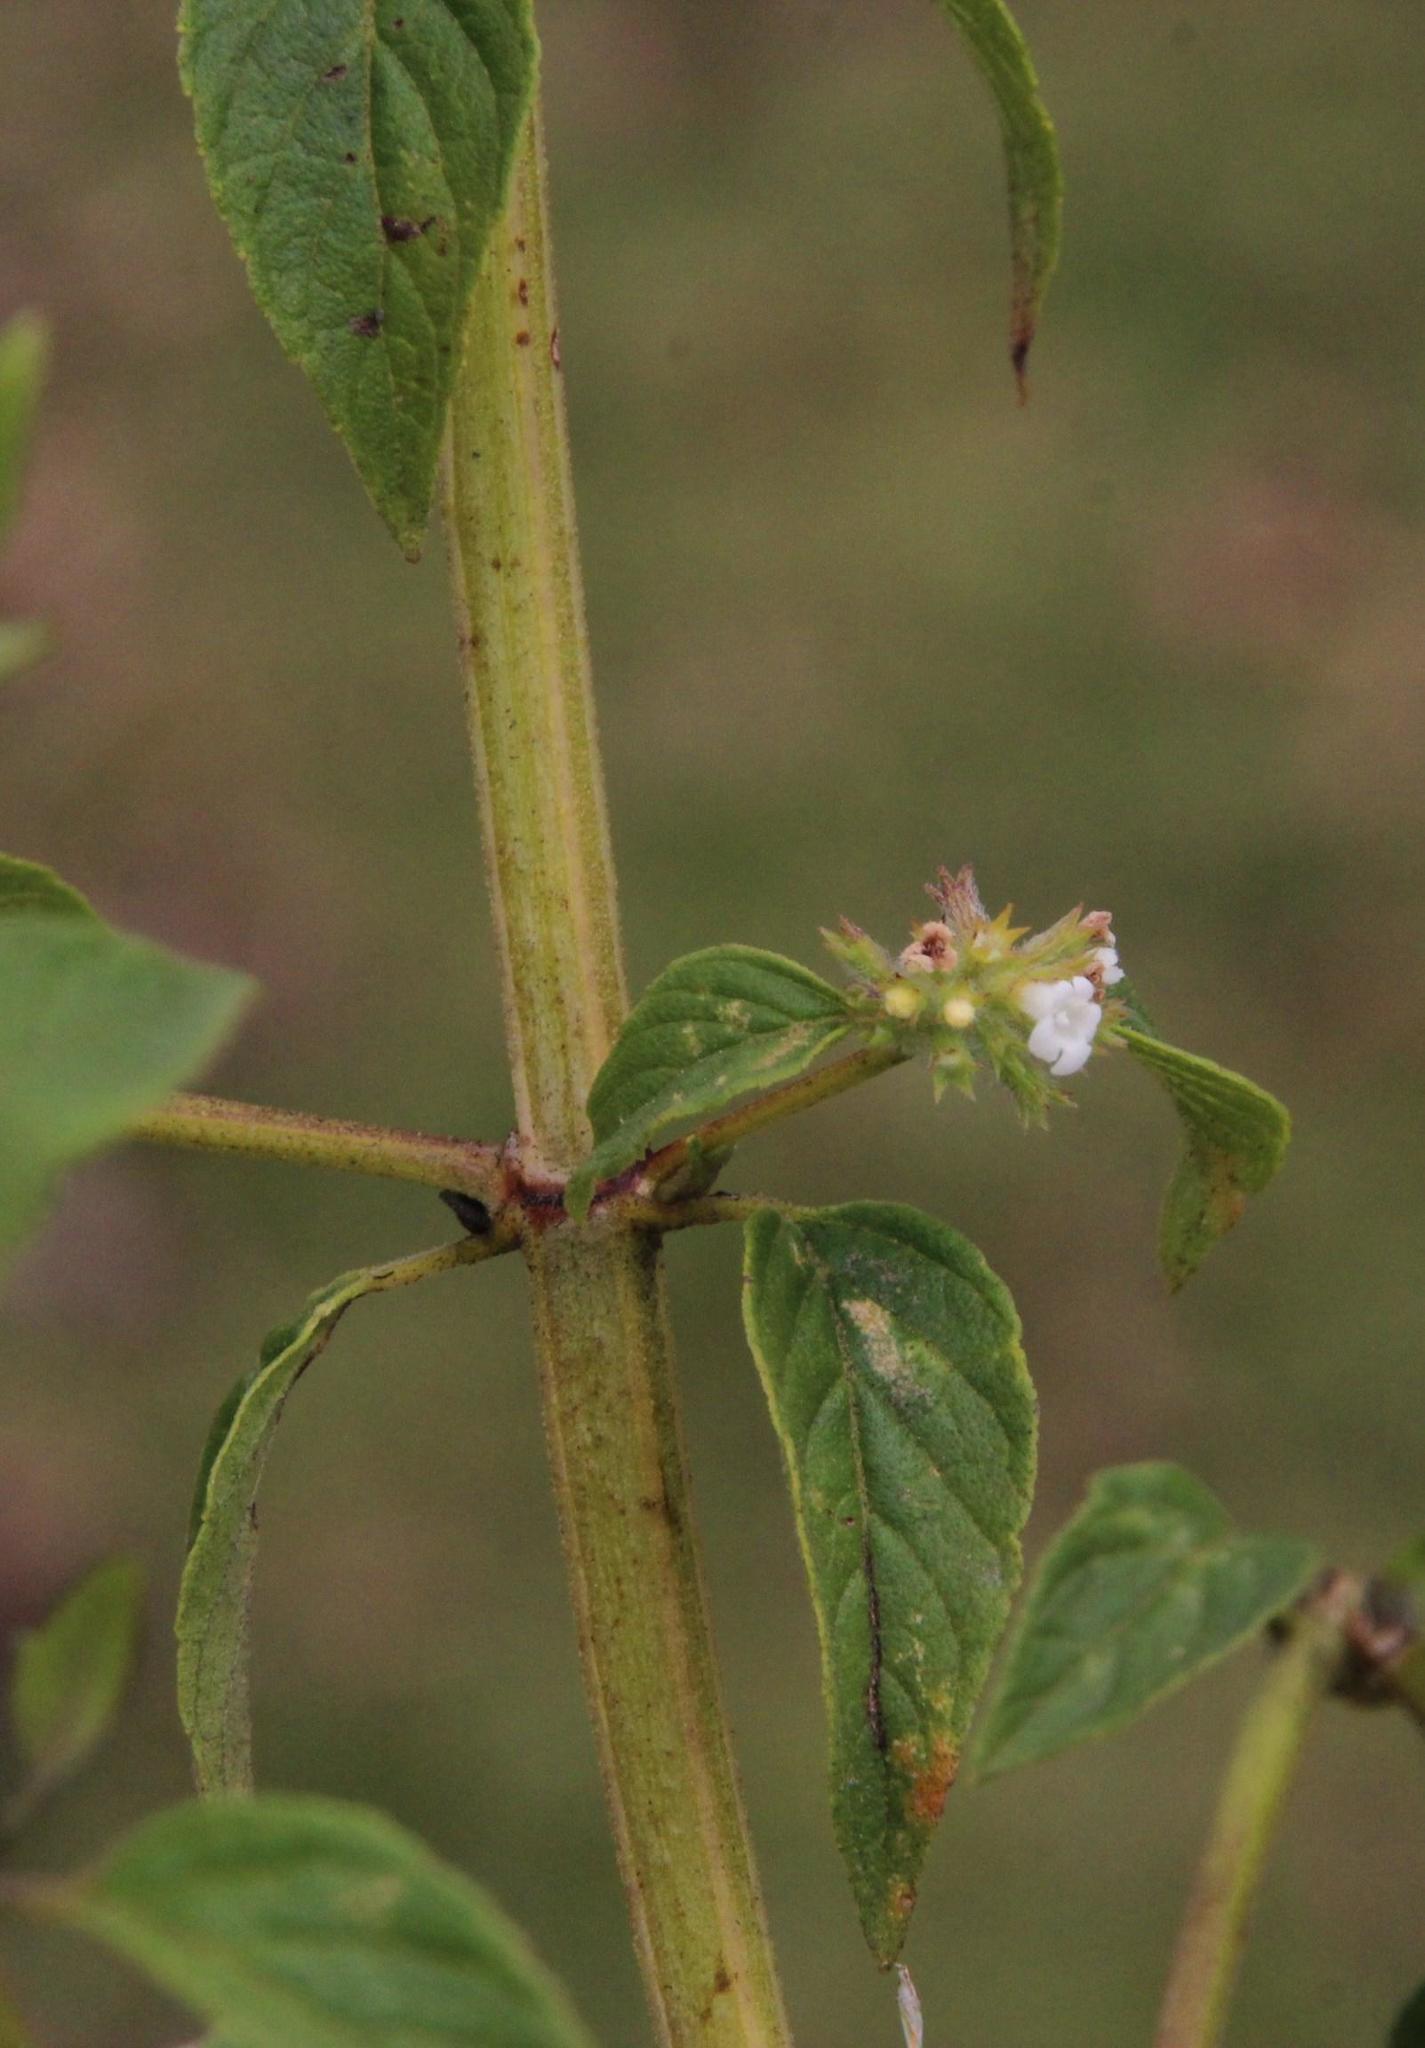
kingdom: Plantae
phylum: Tracheophyta
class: Magnoliopsida
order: Lamiales
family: Lamiaceae
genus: Minthostachys
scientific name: Minthostachys mollis
